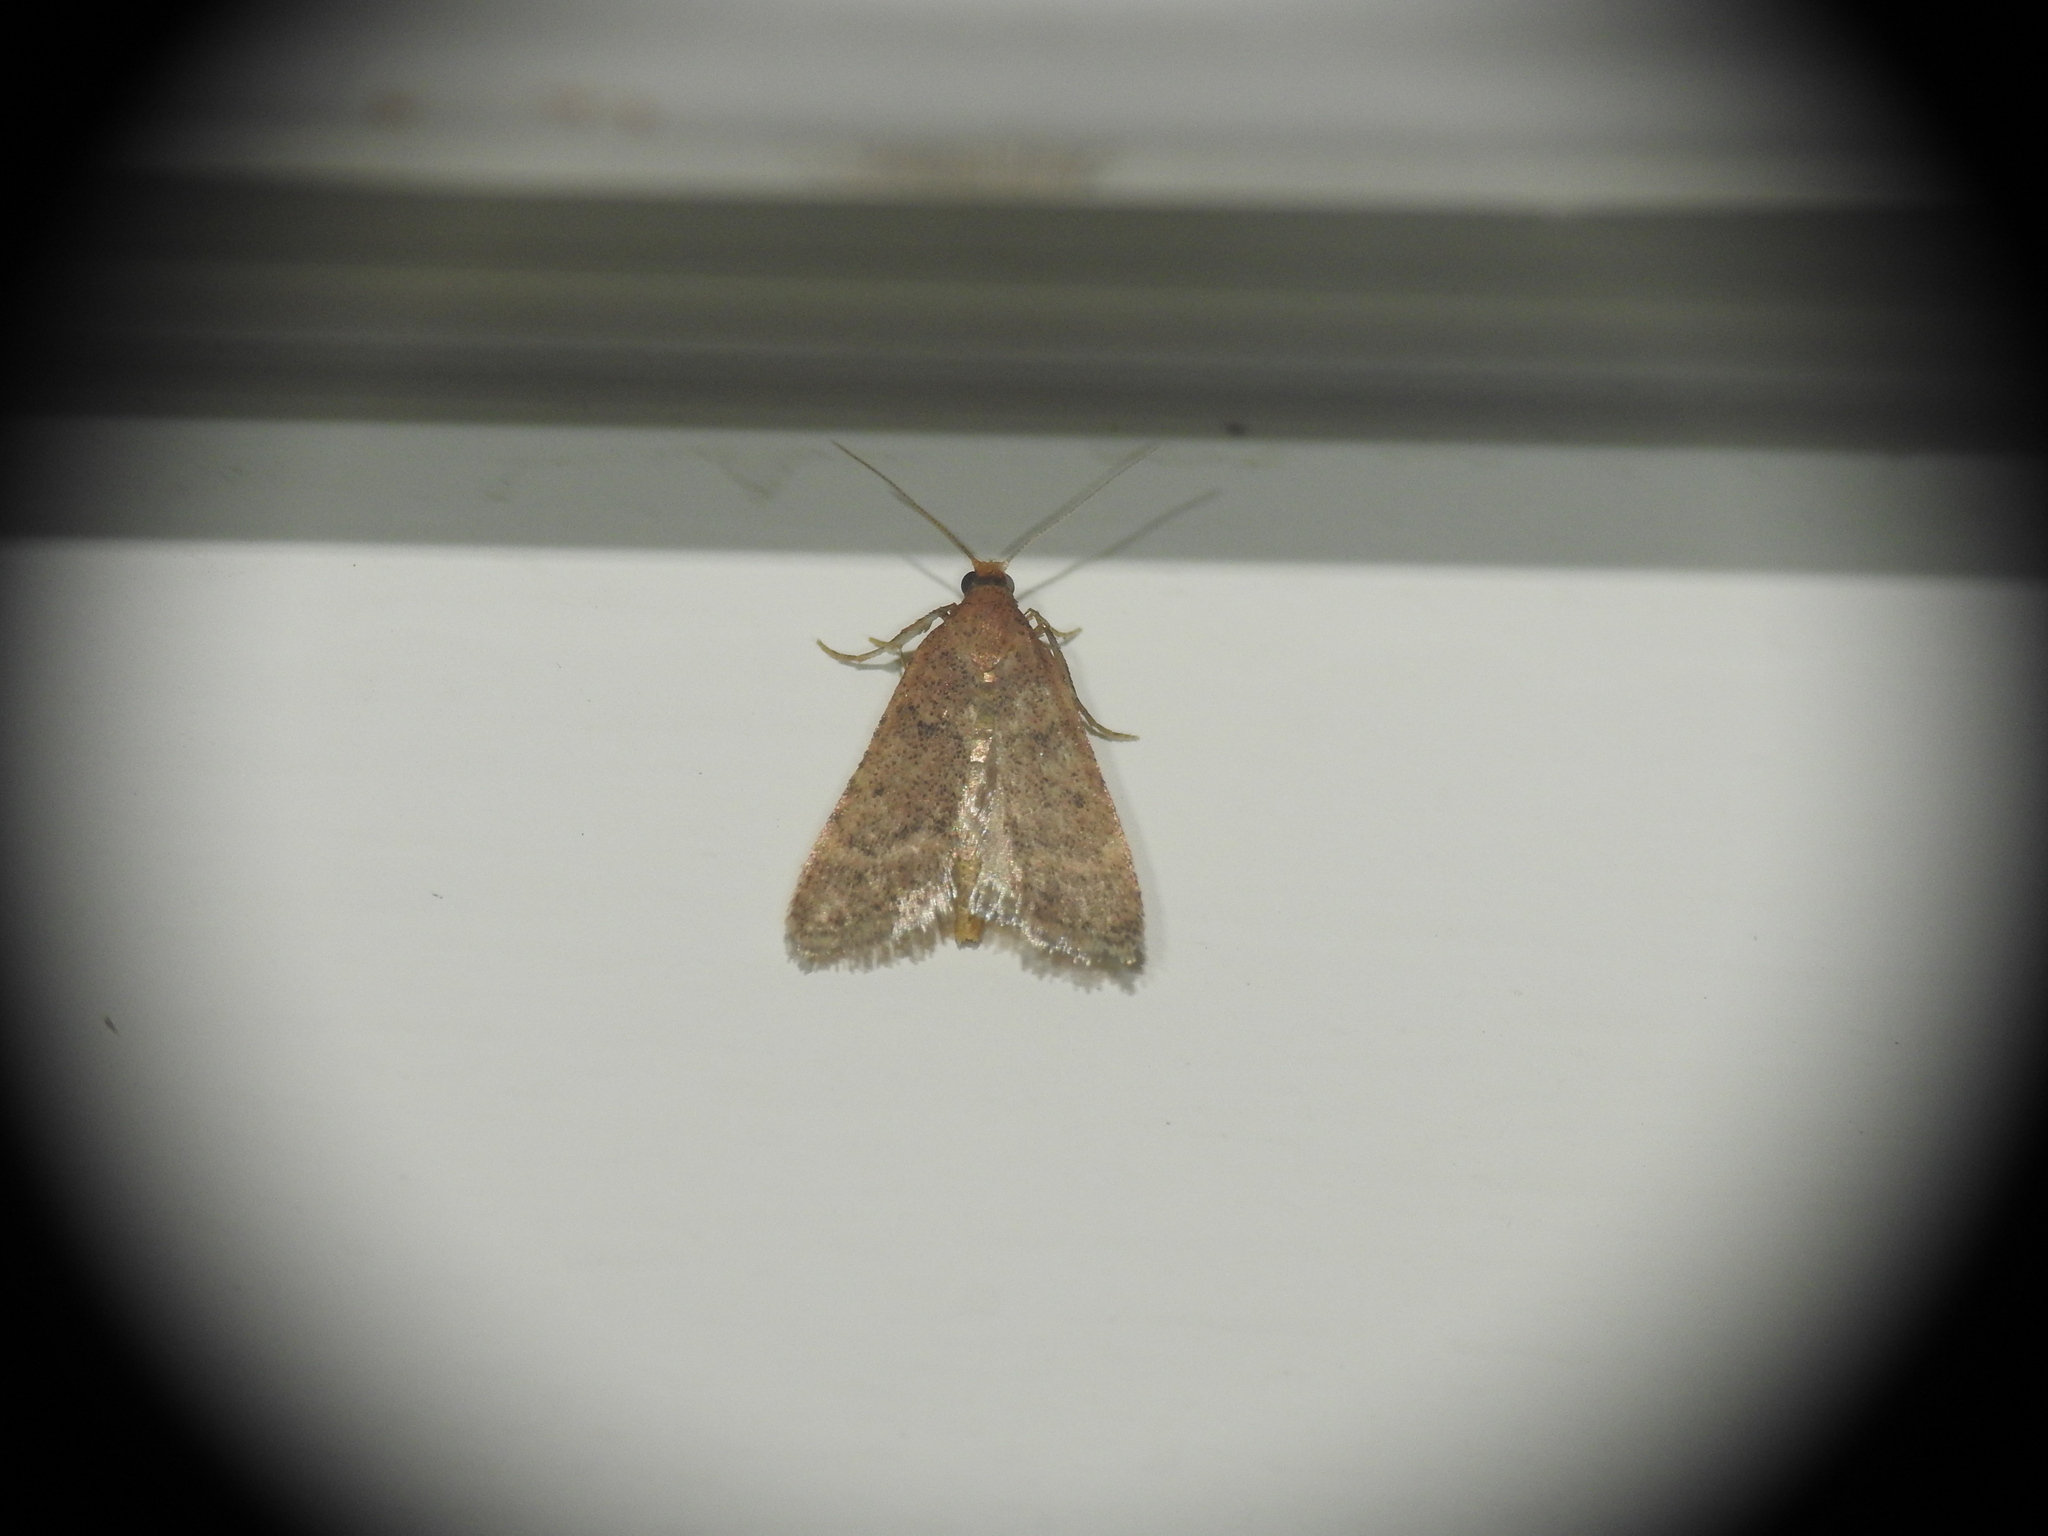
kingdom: Animalia
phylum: Arthropoda
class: Insecta
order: Lepidoptera
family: Pyralidae
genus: Bostra
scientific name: Bostra obsoletalis
